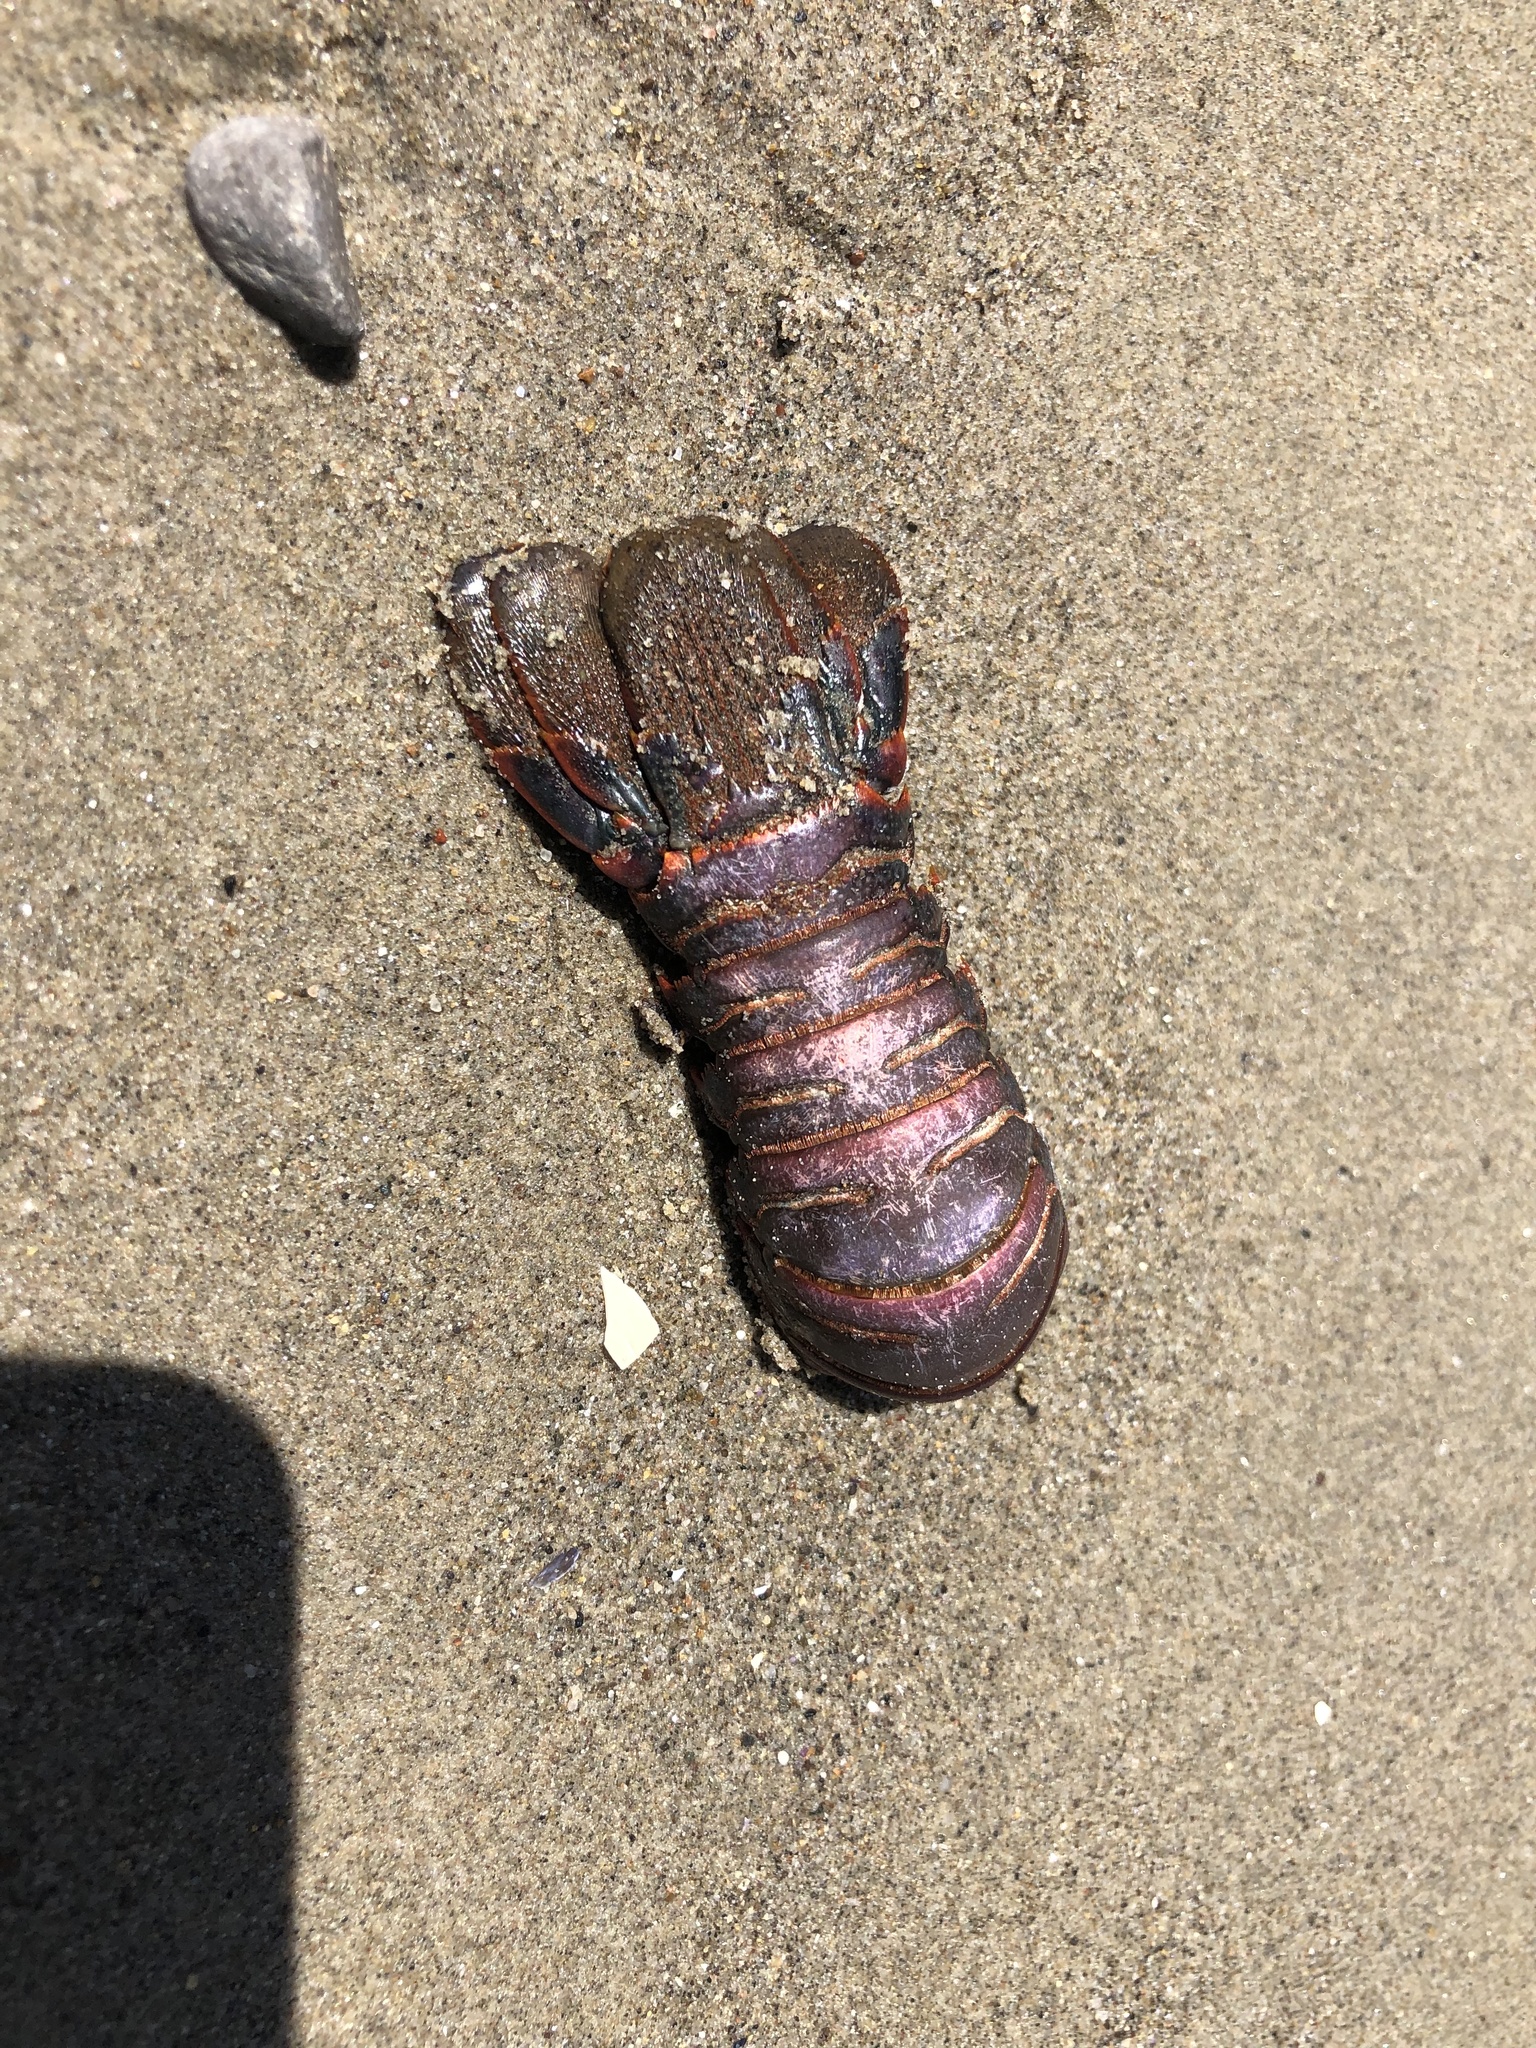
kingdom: Animalia
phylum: Arthropoda
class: Malacostraca
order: Decapoda
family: Palinuridae
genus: Panulirus
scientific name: Panulirus interruptus
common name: California spiny lobster
